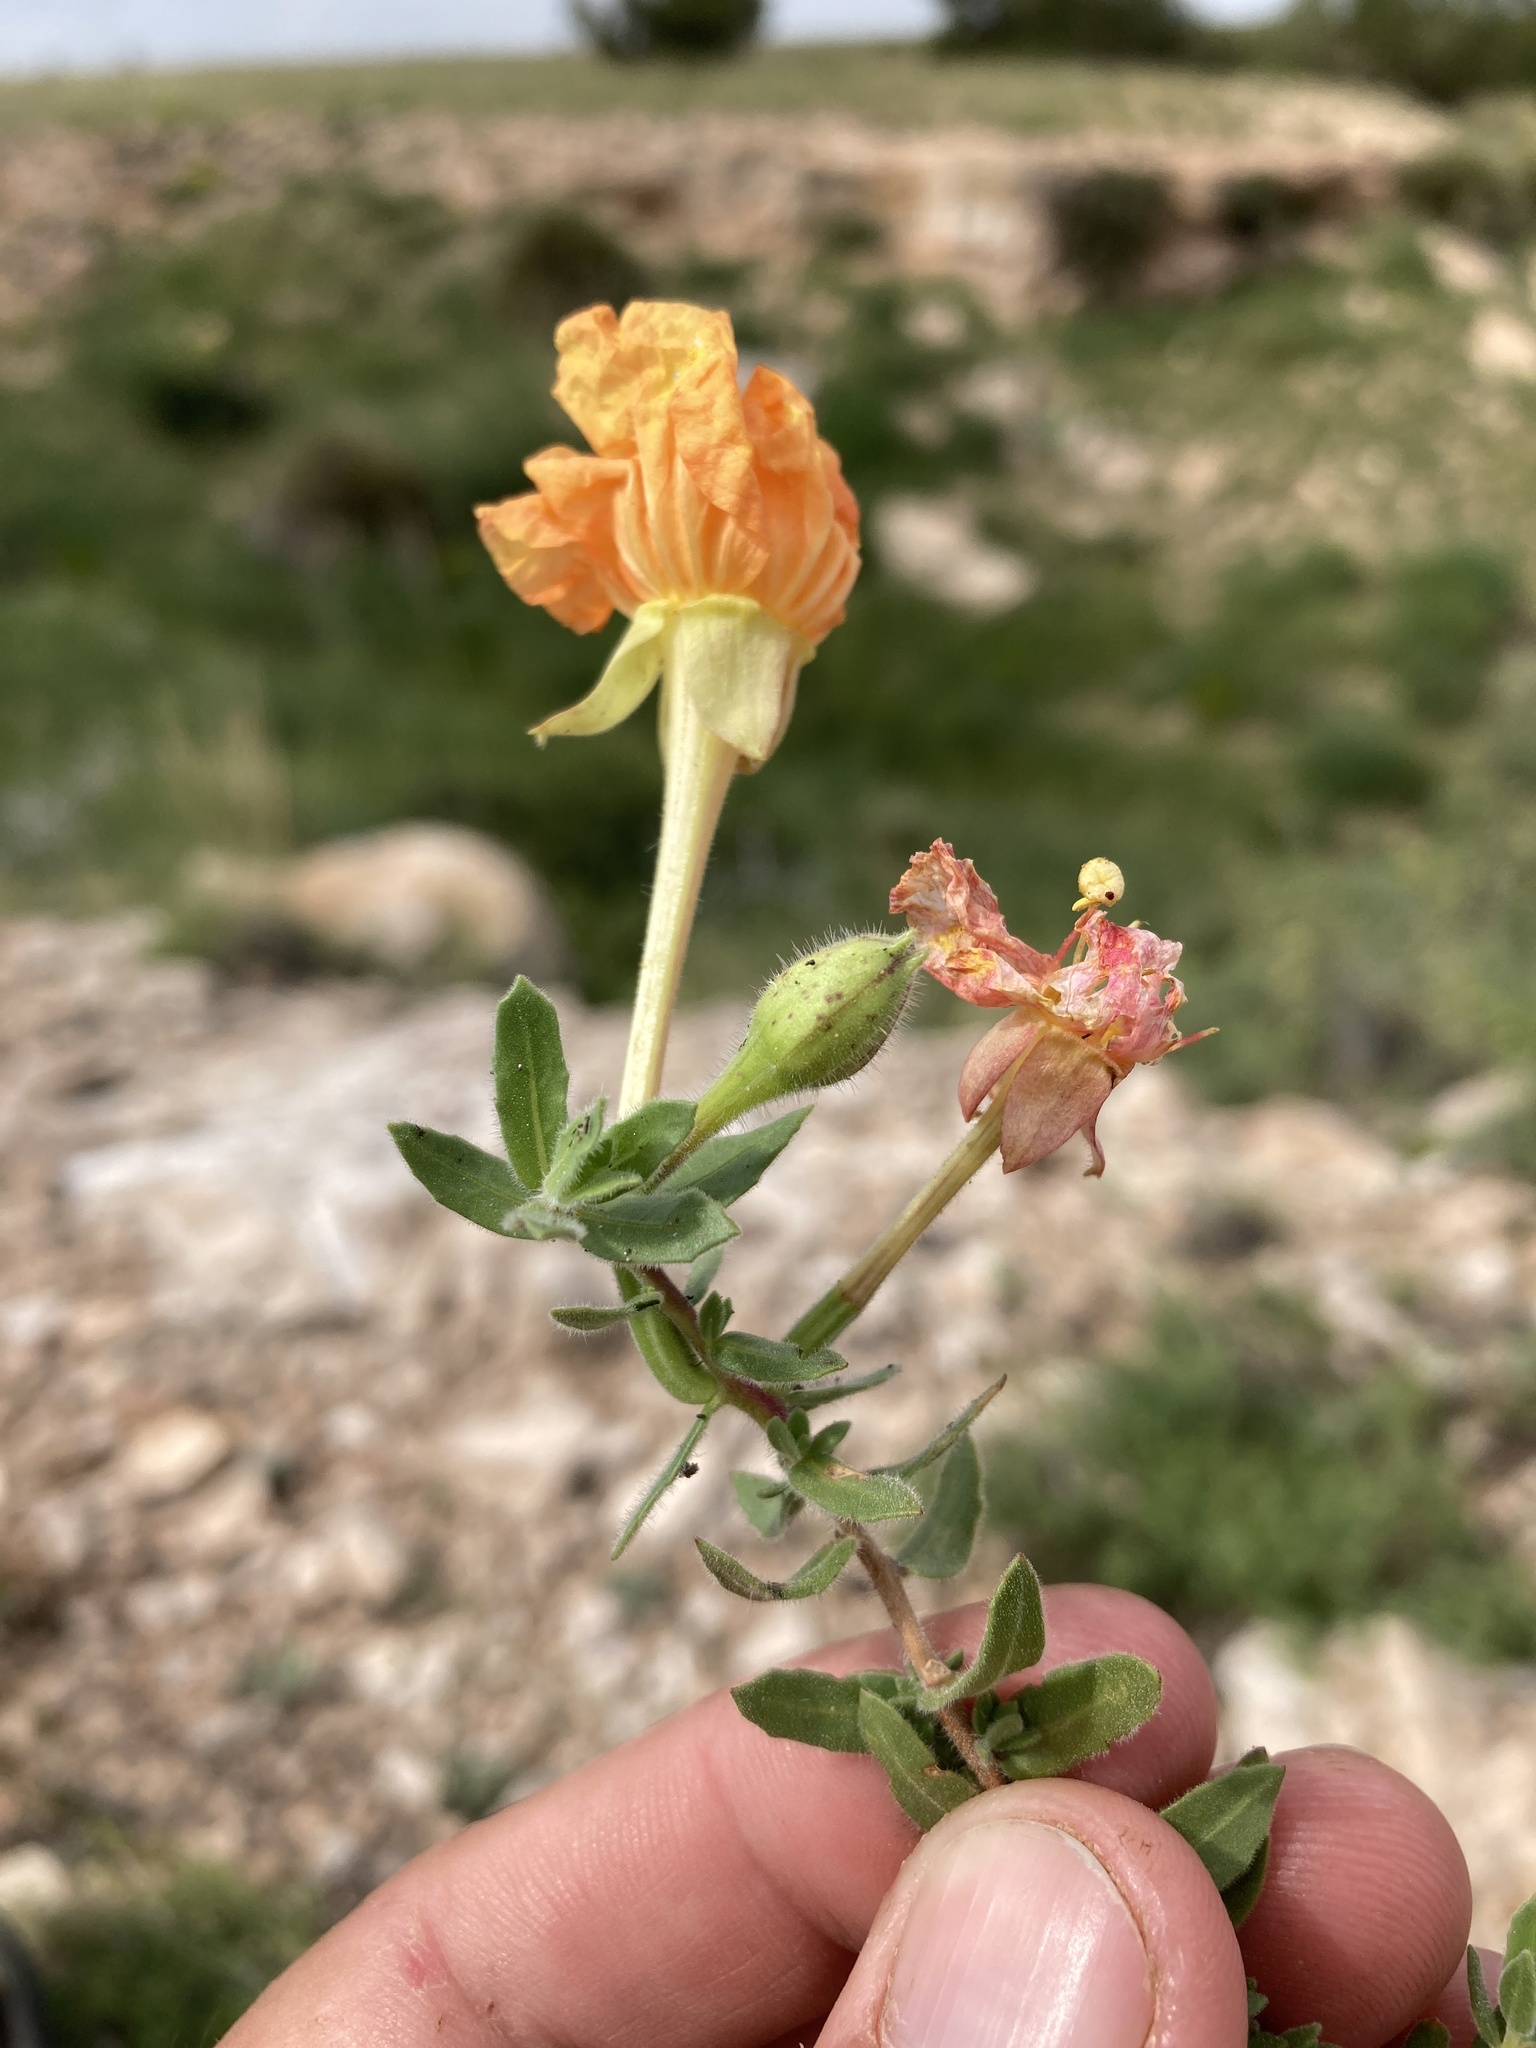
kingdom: Plantae
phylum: Tracheophyta
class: Magnoliopsida
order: Myrtales
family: Onagraceae
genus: Oenothera
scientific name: Oenothera hartwegii
